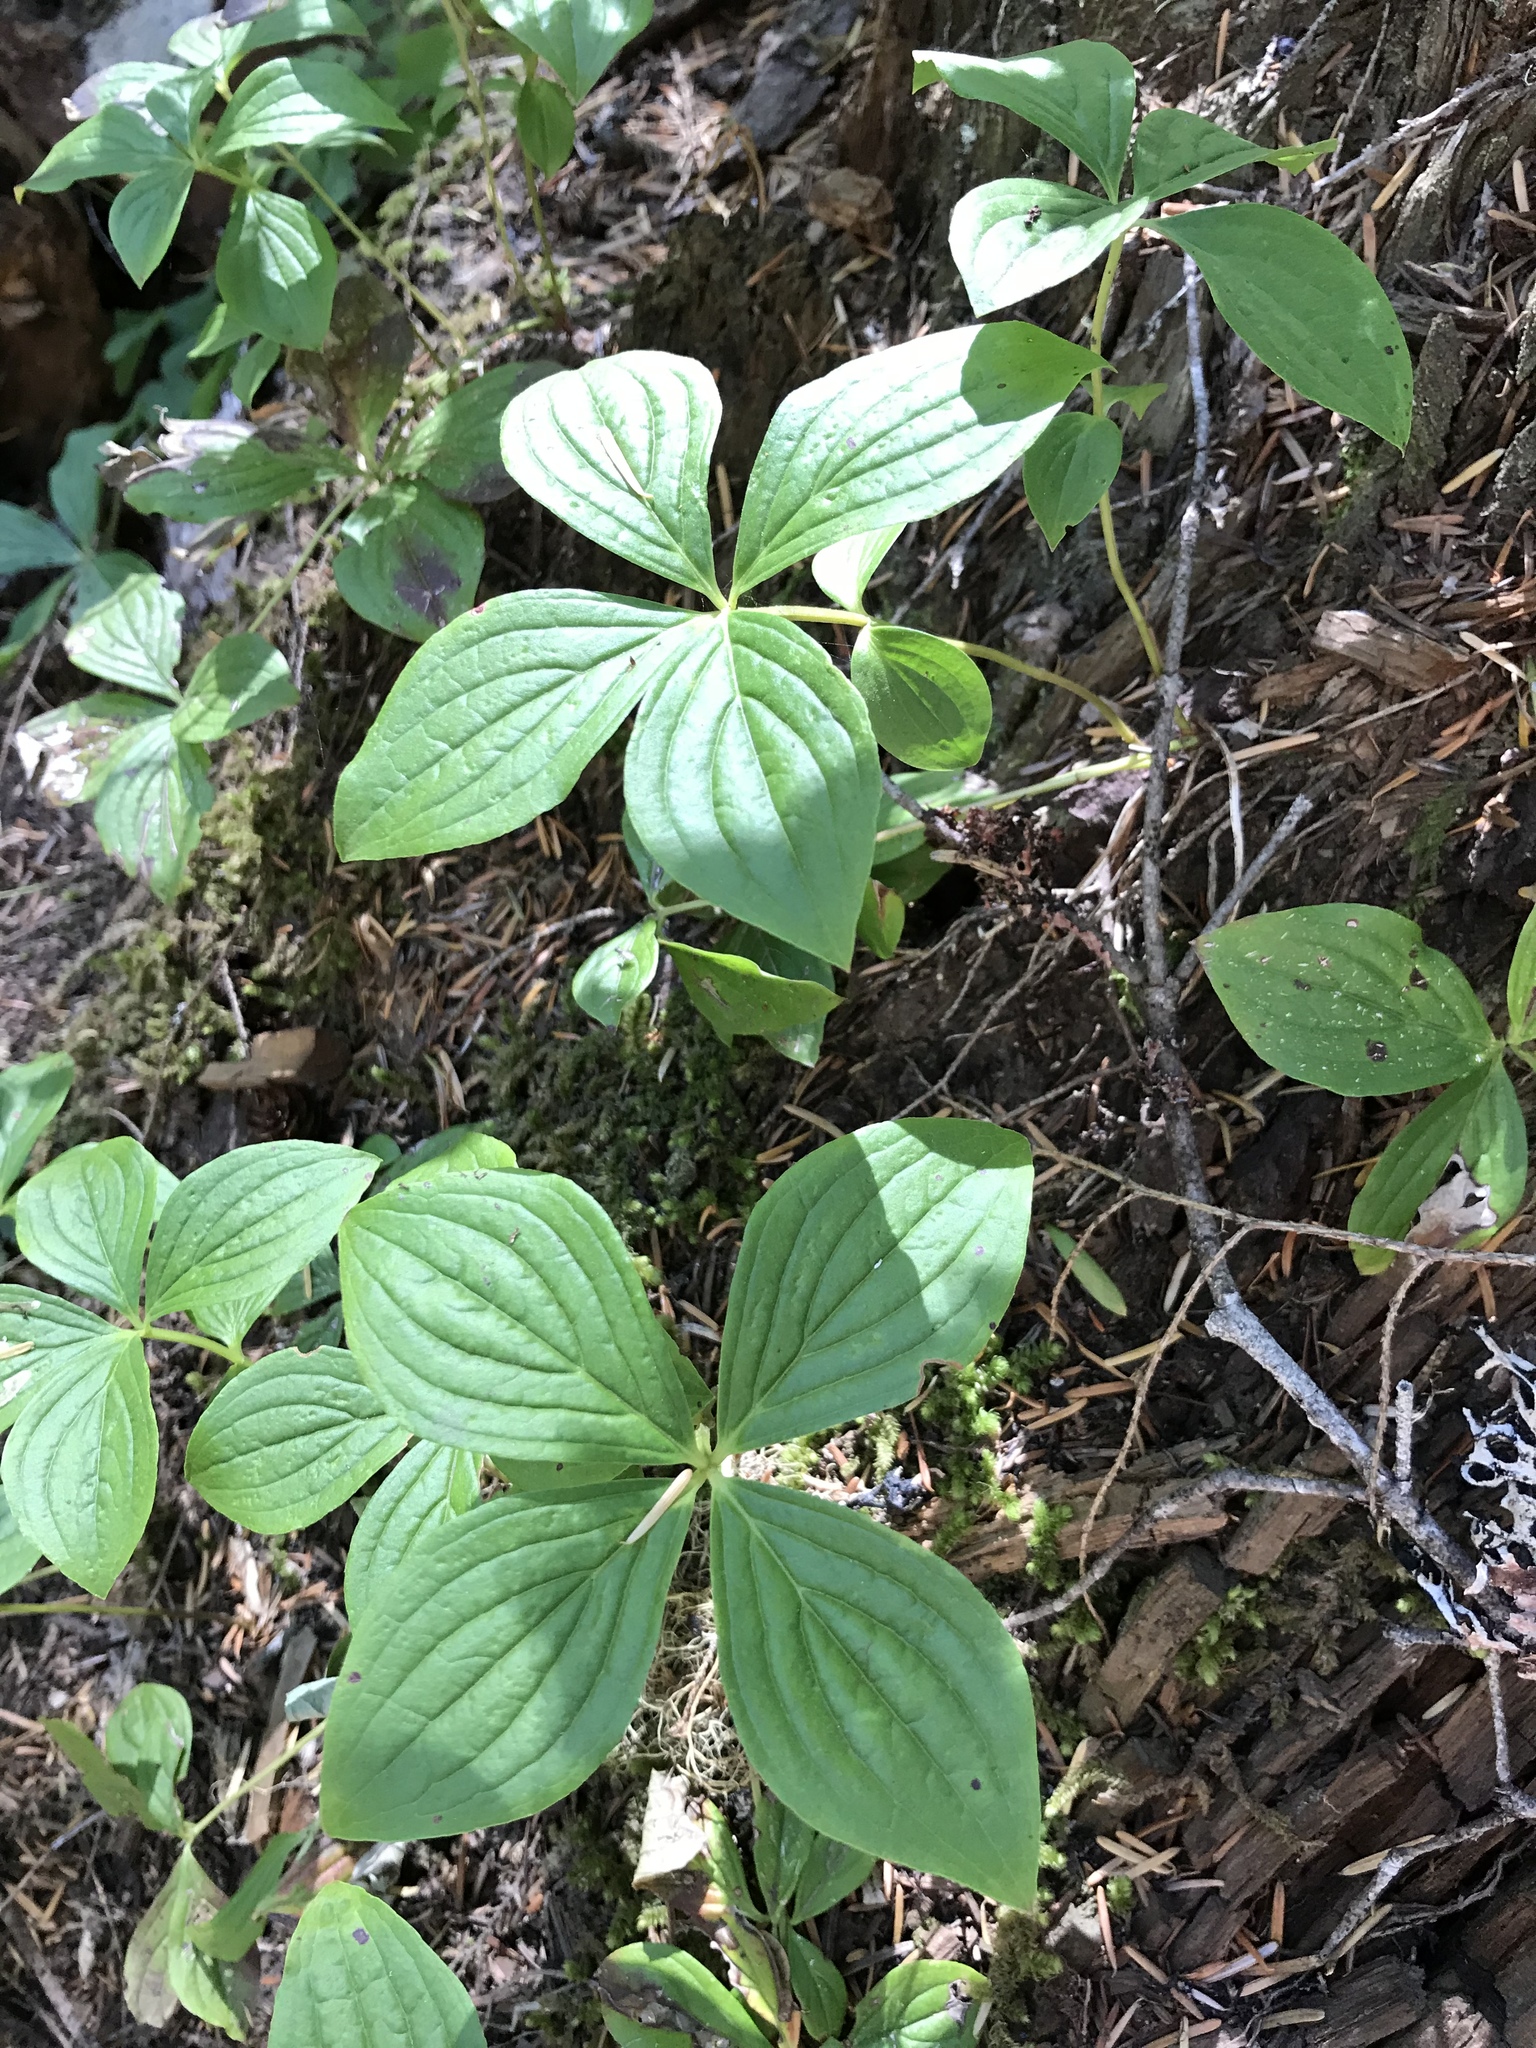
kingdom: Plantae
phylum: Tracheophyta
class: Magnoliopsida
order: Cornales
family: Cornaceae
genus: Cornus
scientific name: Cornus unalaschkensis
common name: Alaska bunchberry
